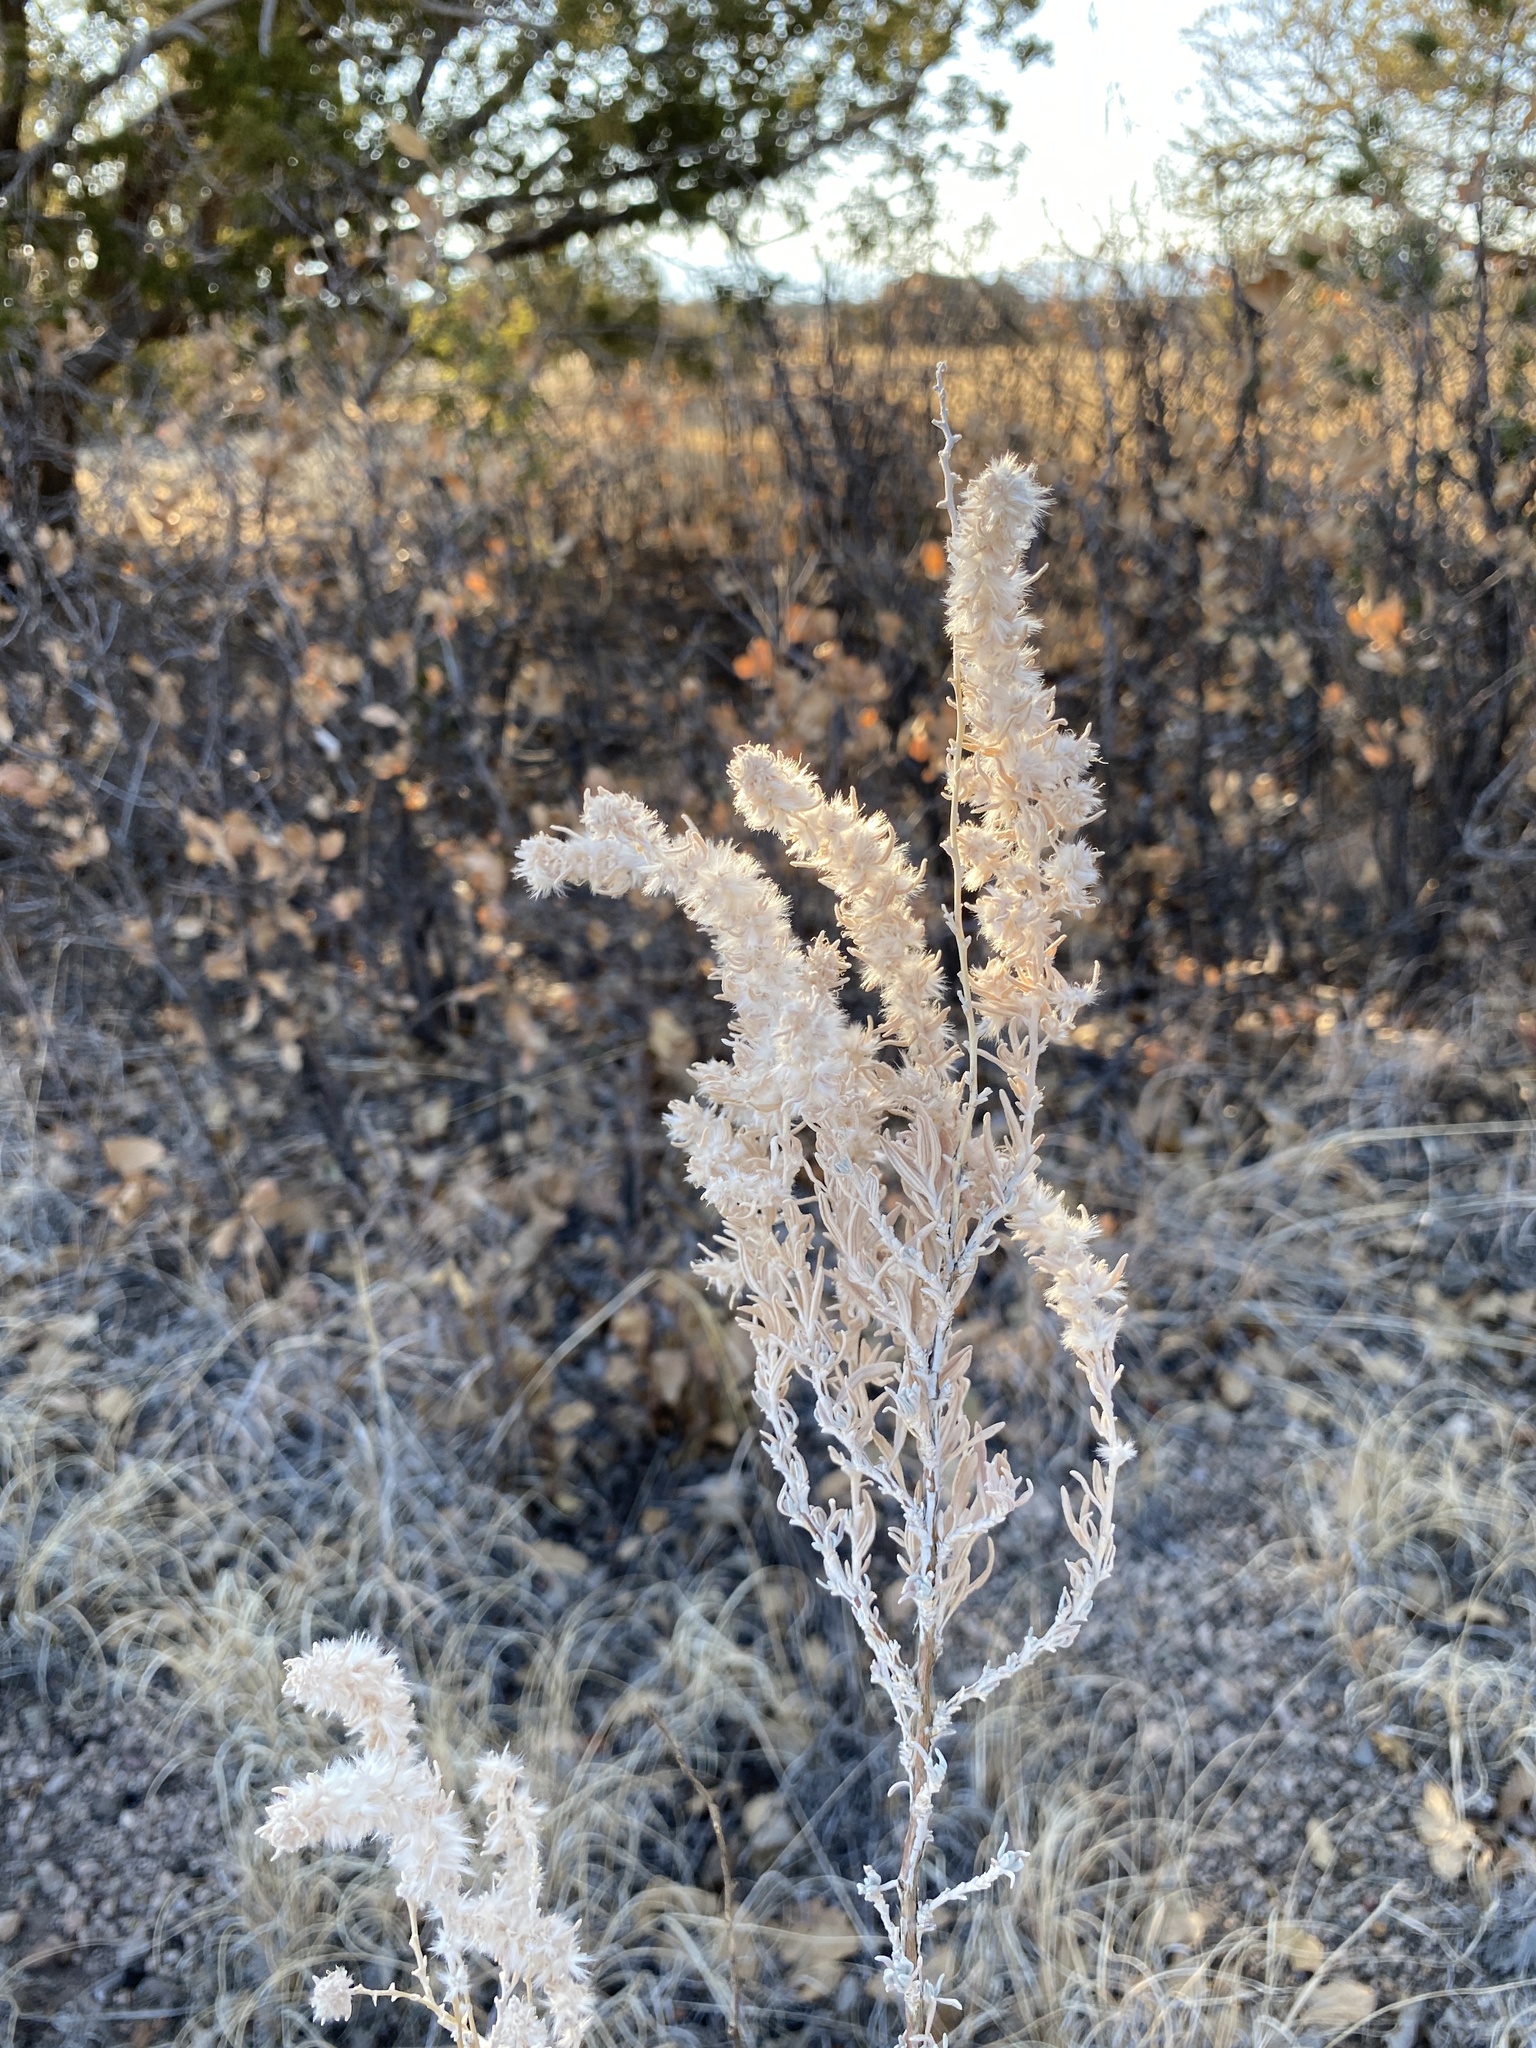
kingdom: Plantae
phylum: Tracheophyta
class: Magnoliopsida
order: Caryophyllales
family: Amaranthaceae
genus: Krascheninnikovia
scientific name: Krascheninnikovia lanata
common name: Winterfat
